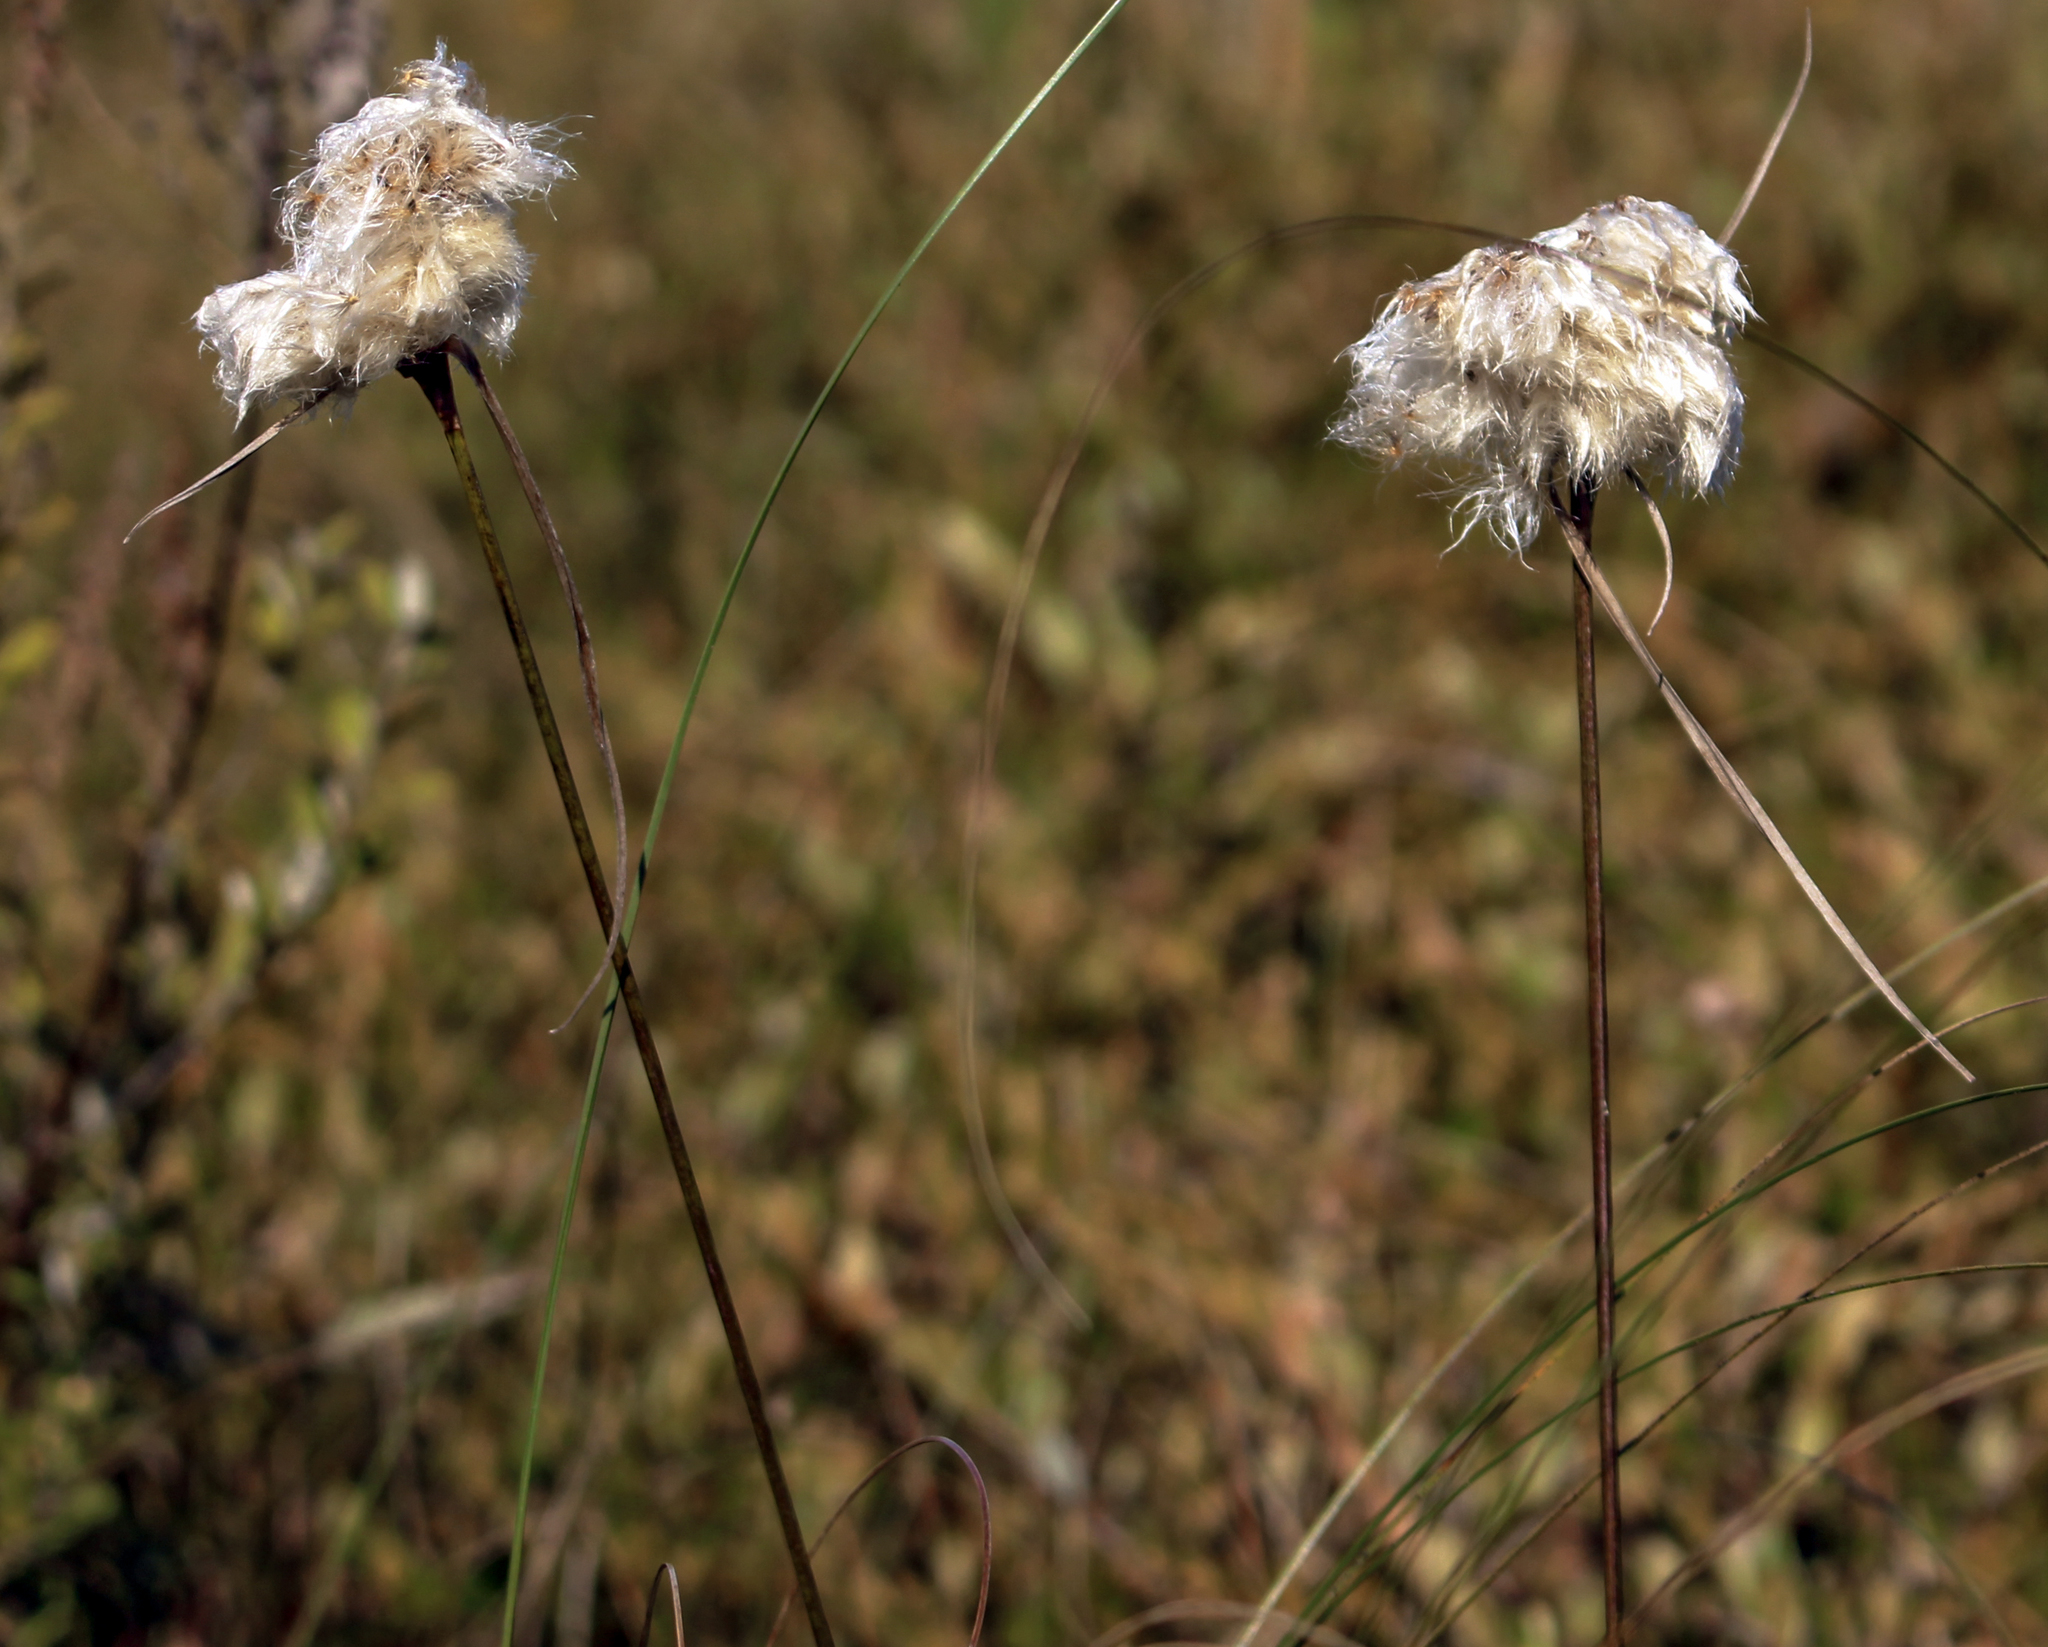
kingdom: Plantae
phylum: Tracheophyta
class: Liliopsida
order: Poales
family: Cyperaceae
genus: Eriophorum
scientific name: Eriophorum virginicum
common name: Tawny cottongrass
